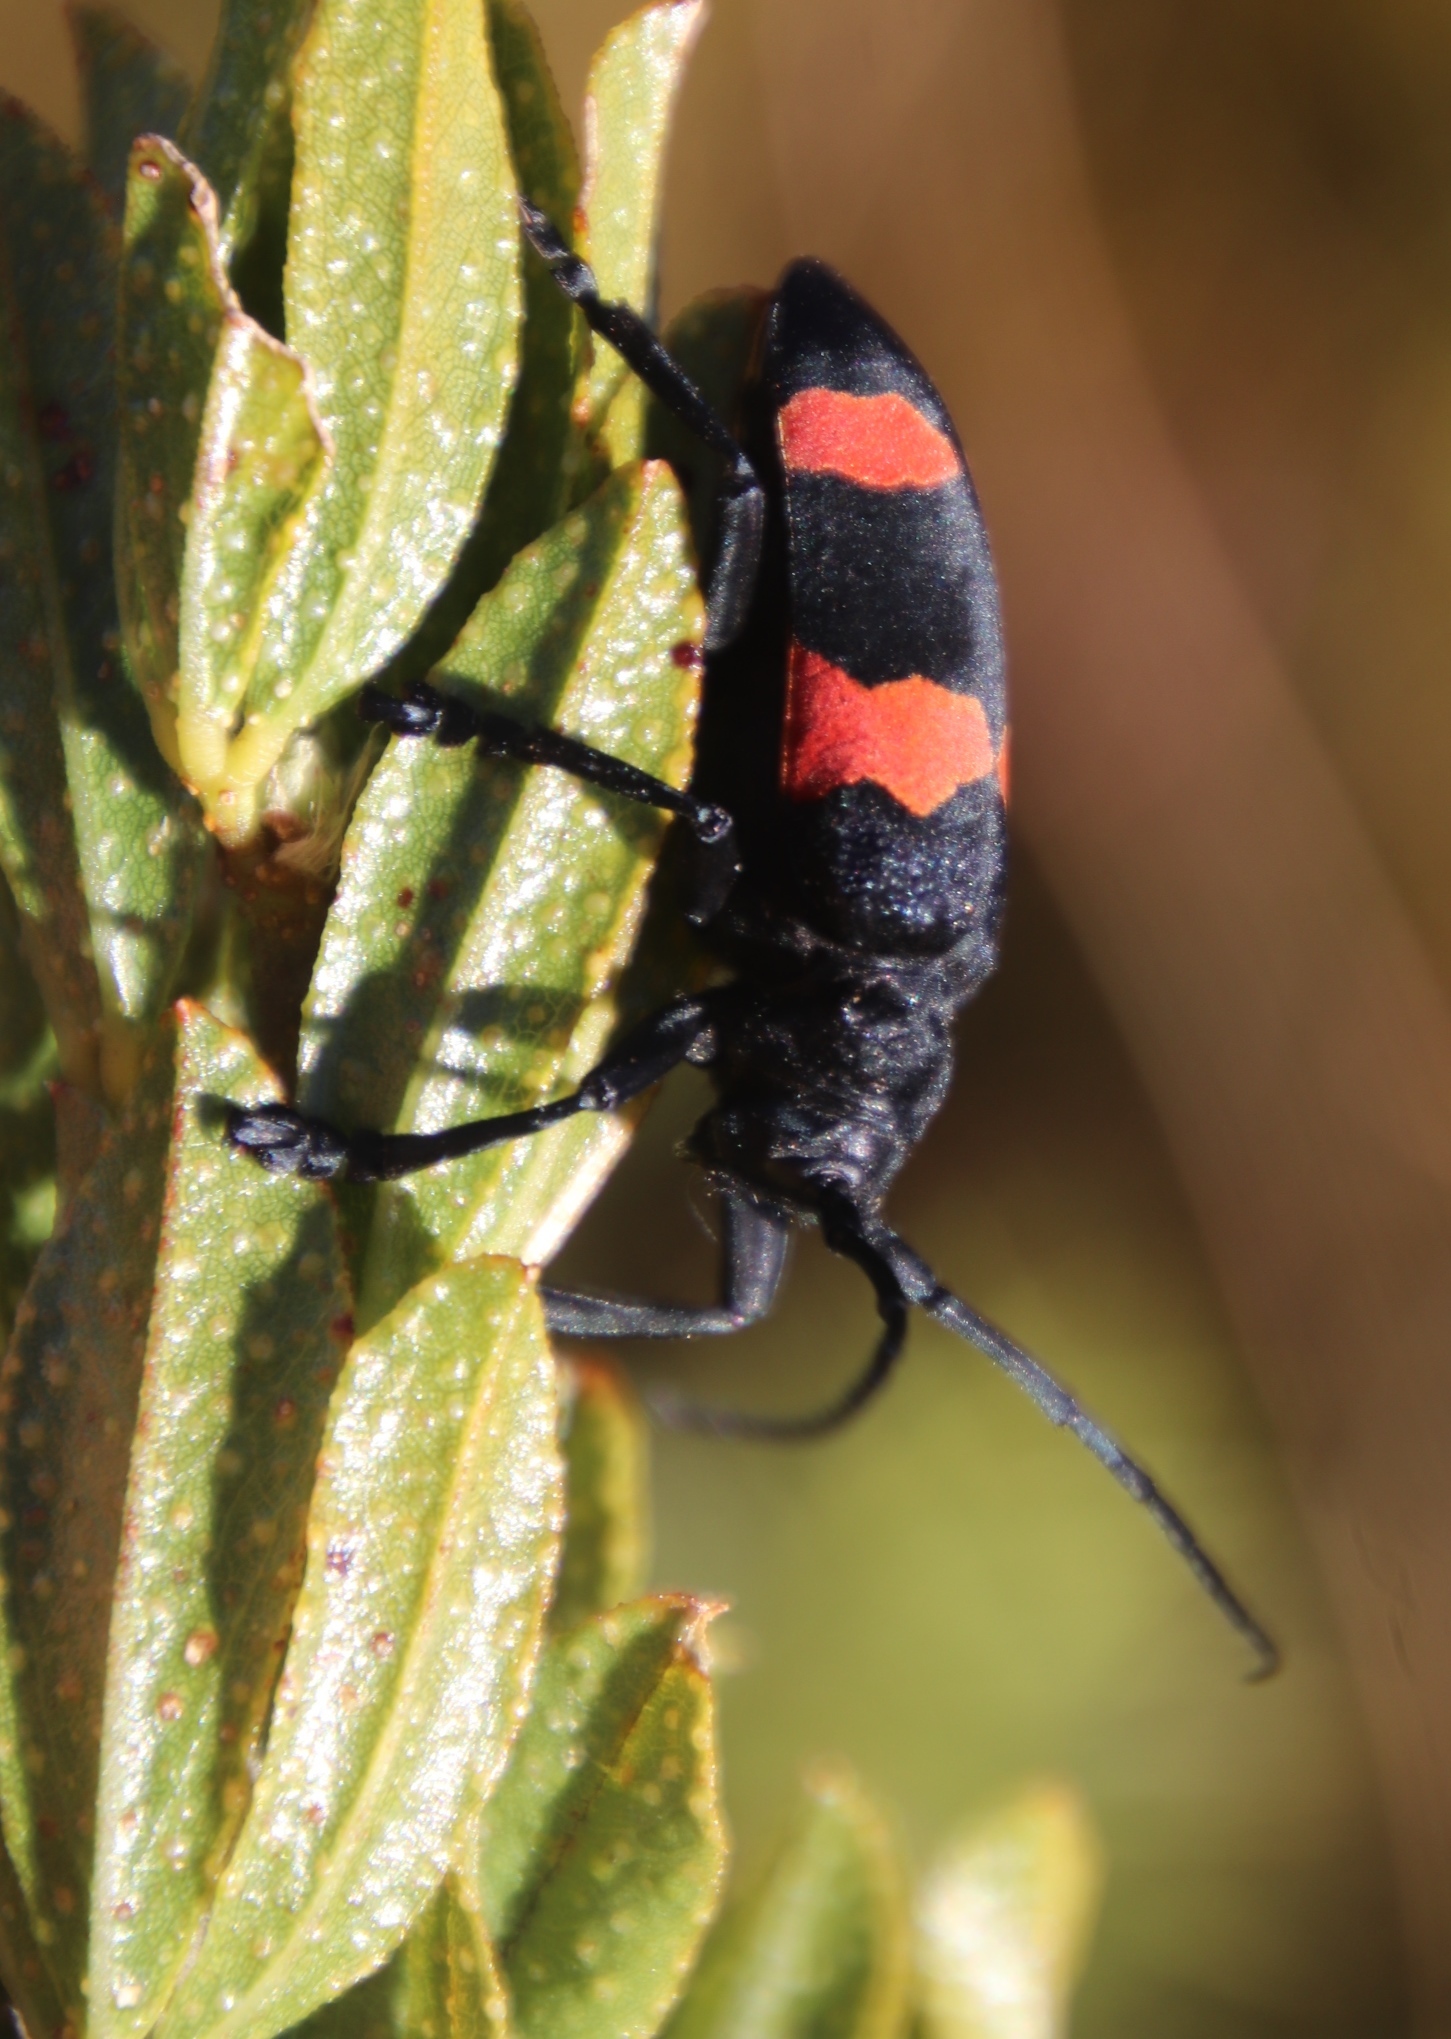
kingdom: Animalia
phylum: Arthropoda
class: Insecta
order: Coleoptera
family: Cerambycidae
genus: Ceroplesis
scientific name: Ceroplesis aethiops
